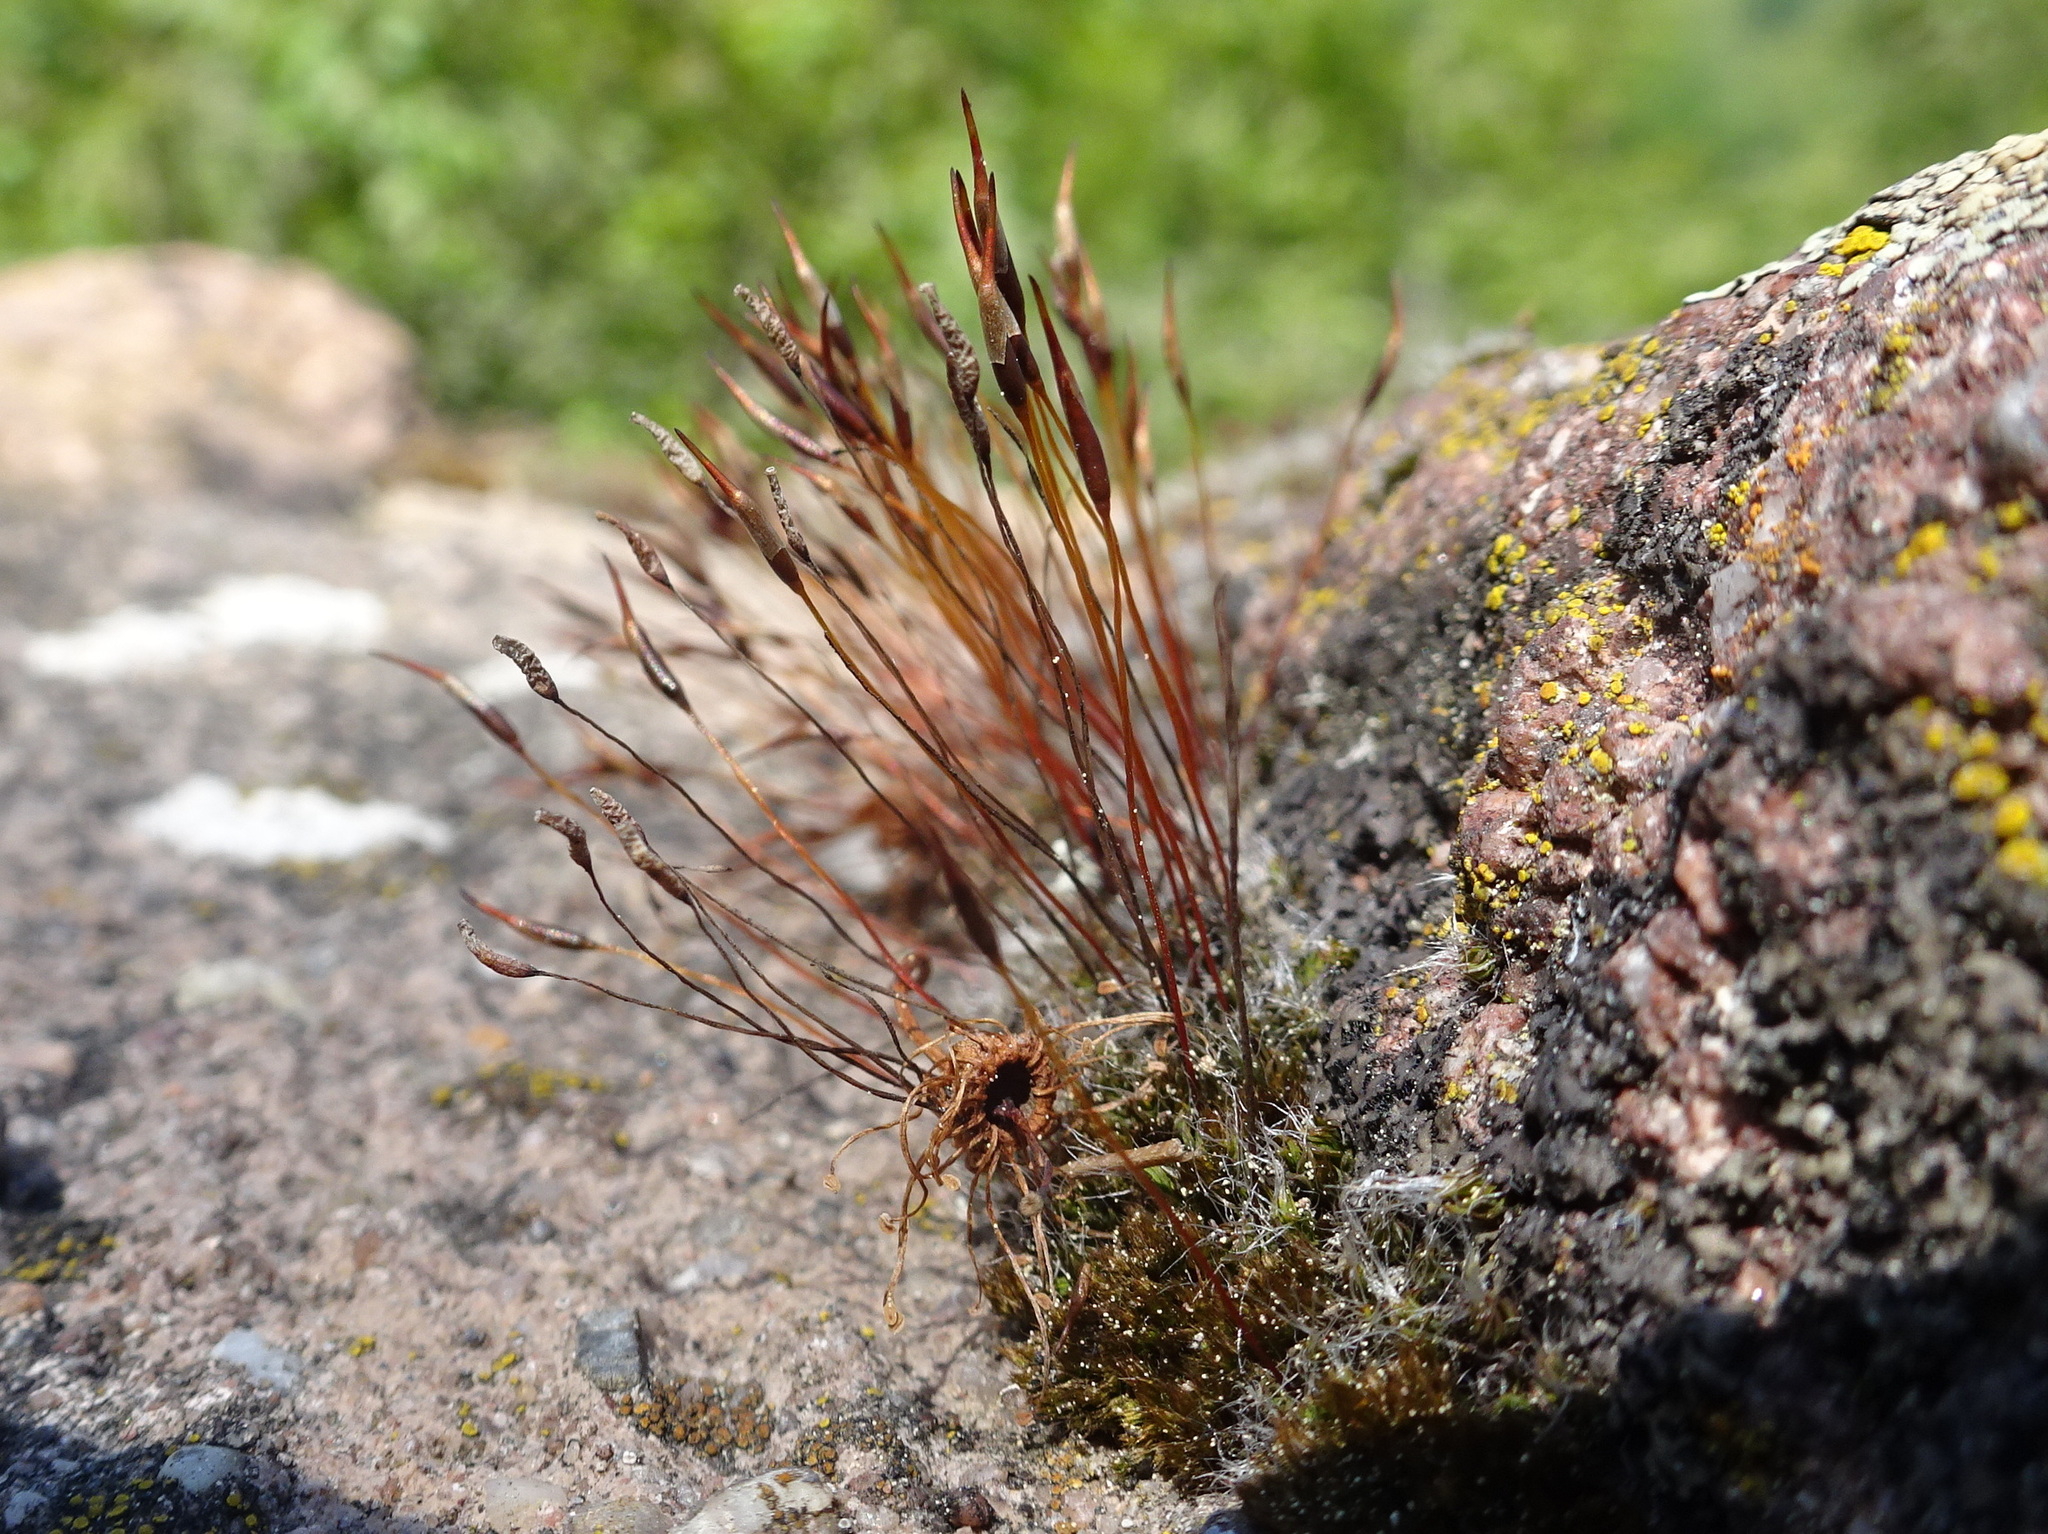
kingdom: Plantae
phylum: Bryophyta
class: Bryopsida
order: Pottiales
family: Pottiaceae
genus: Tortula
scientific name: Tortula muralis
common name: Wall screw-moss
